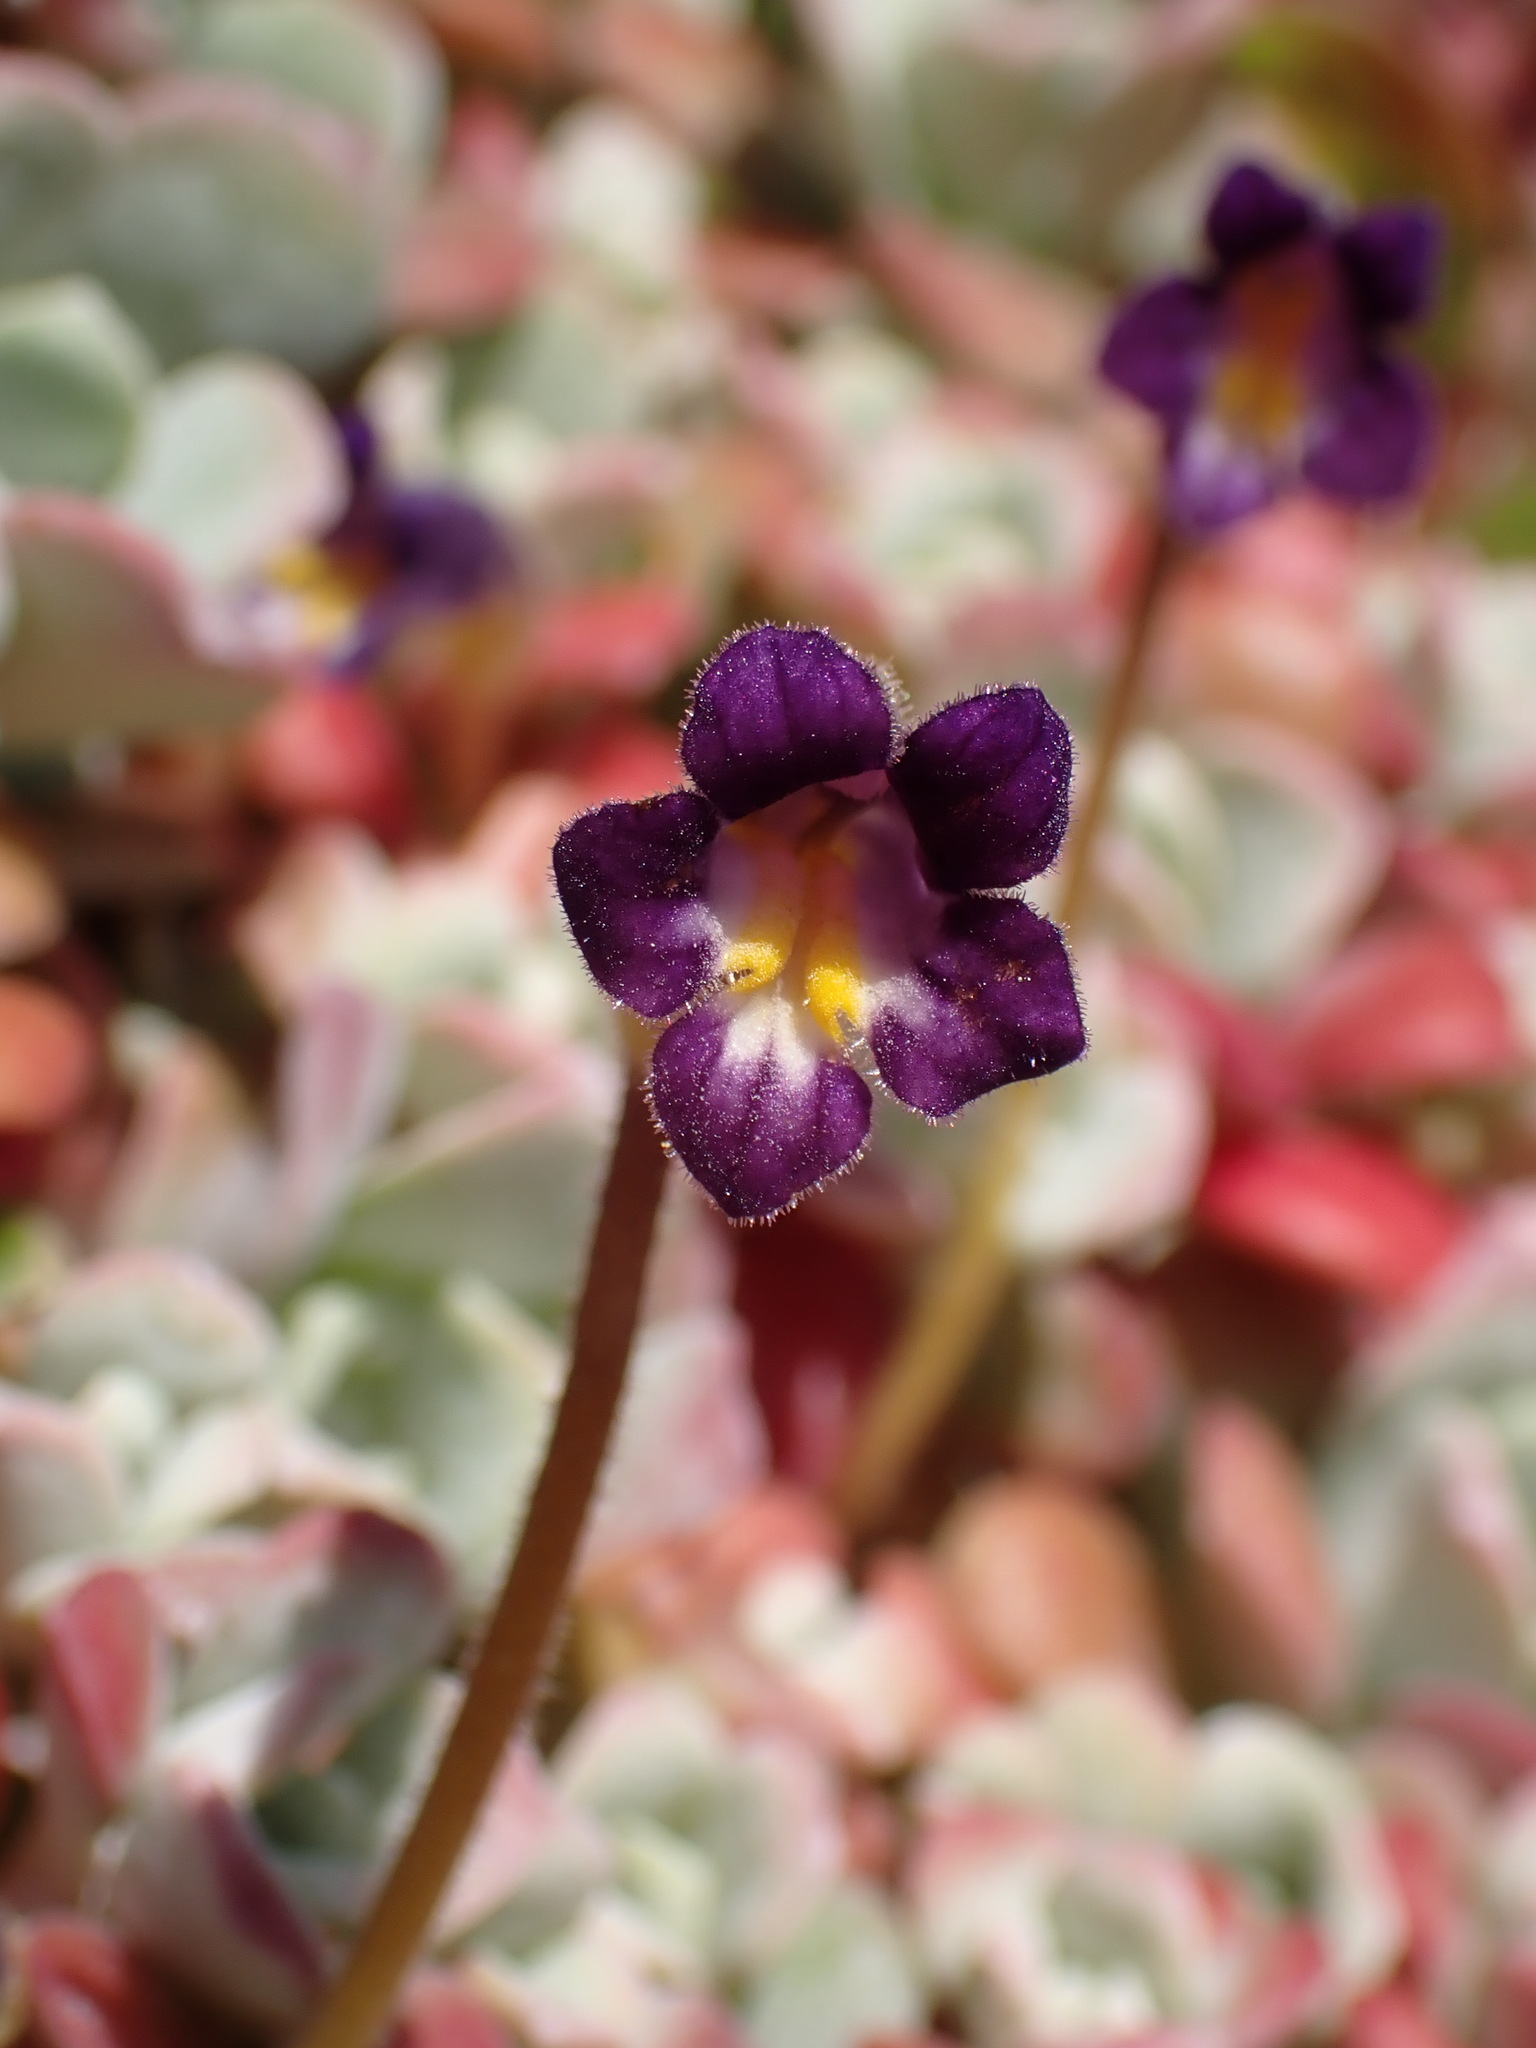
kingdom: Plantae
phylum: Tracheophyta
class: Magnoliopsida
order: Lamiales
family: Orobanchaceae
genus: Aphyllon
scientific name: Aphyllon uniflorum
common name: One-flowered broomrape
